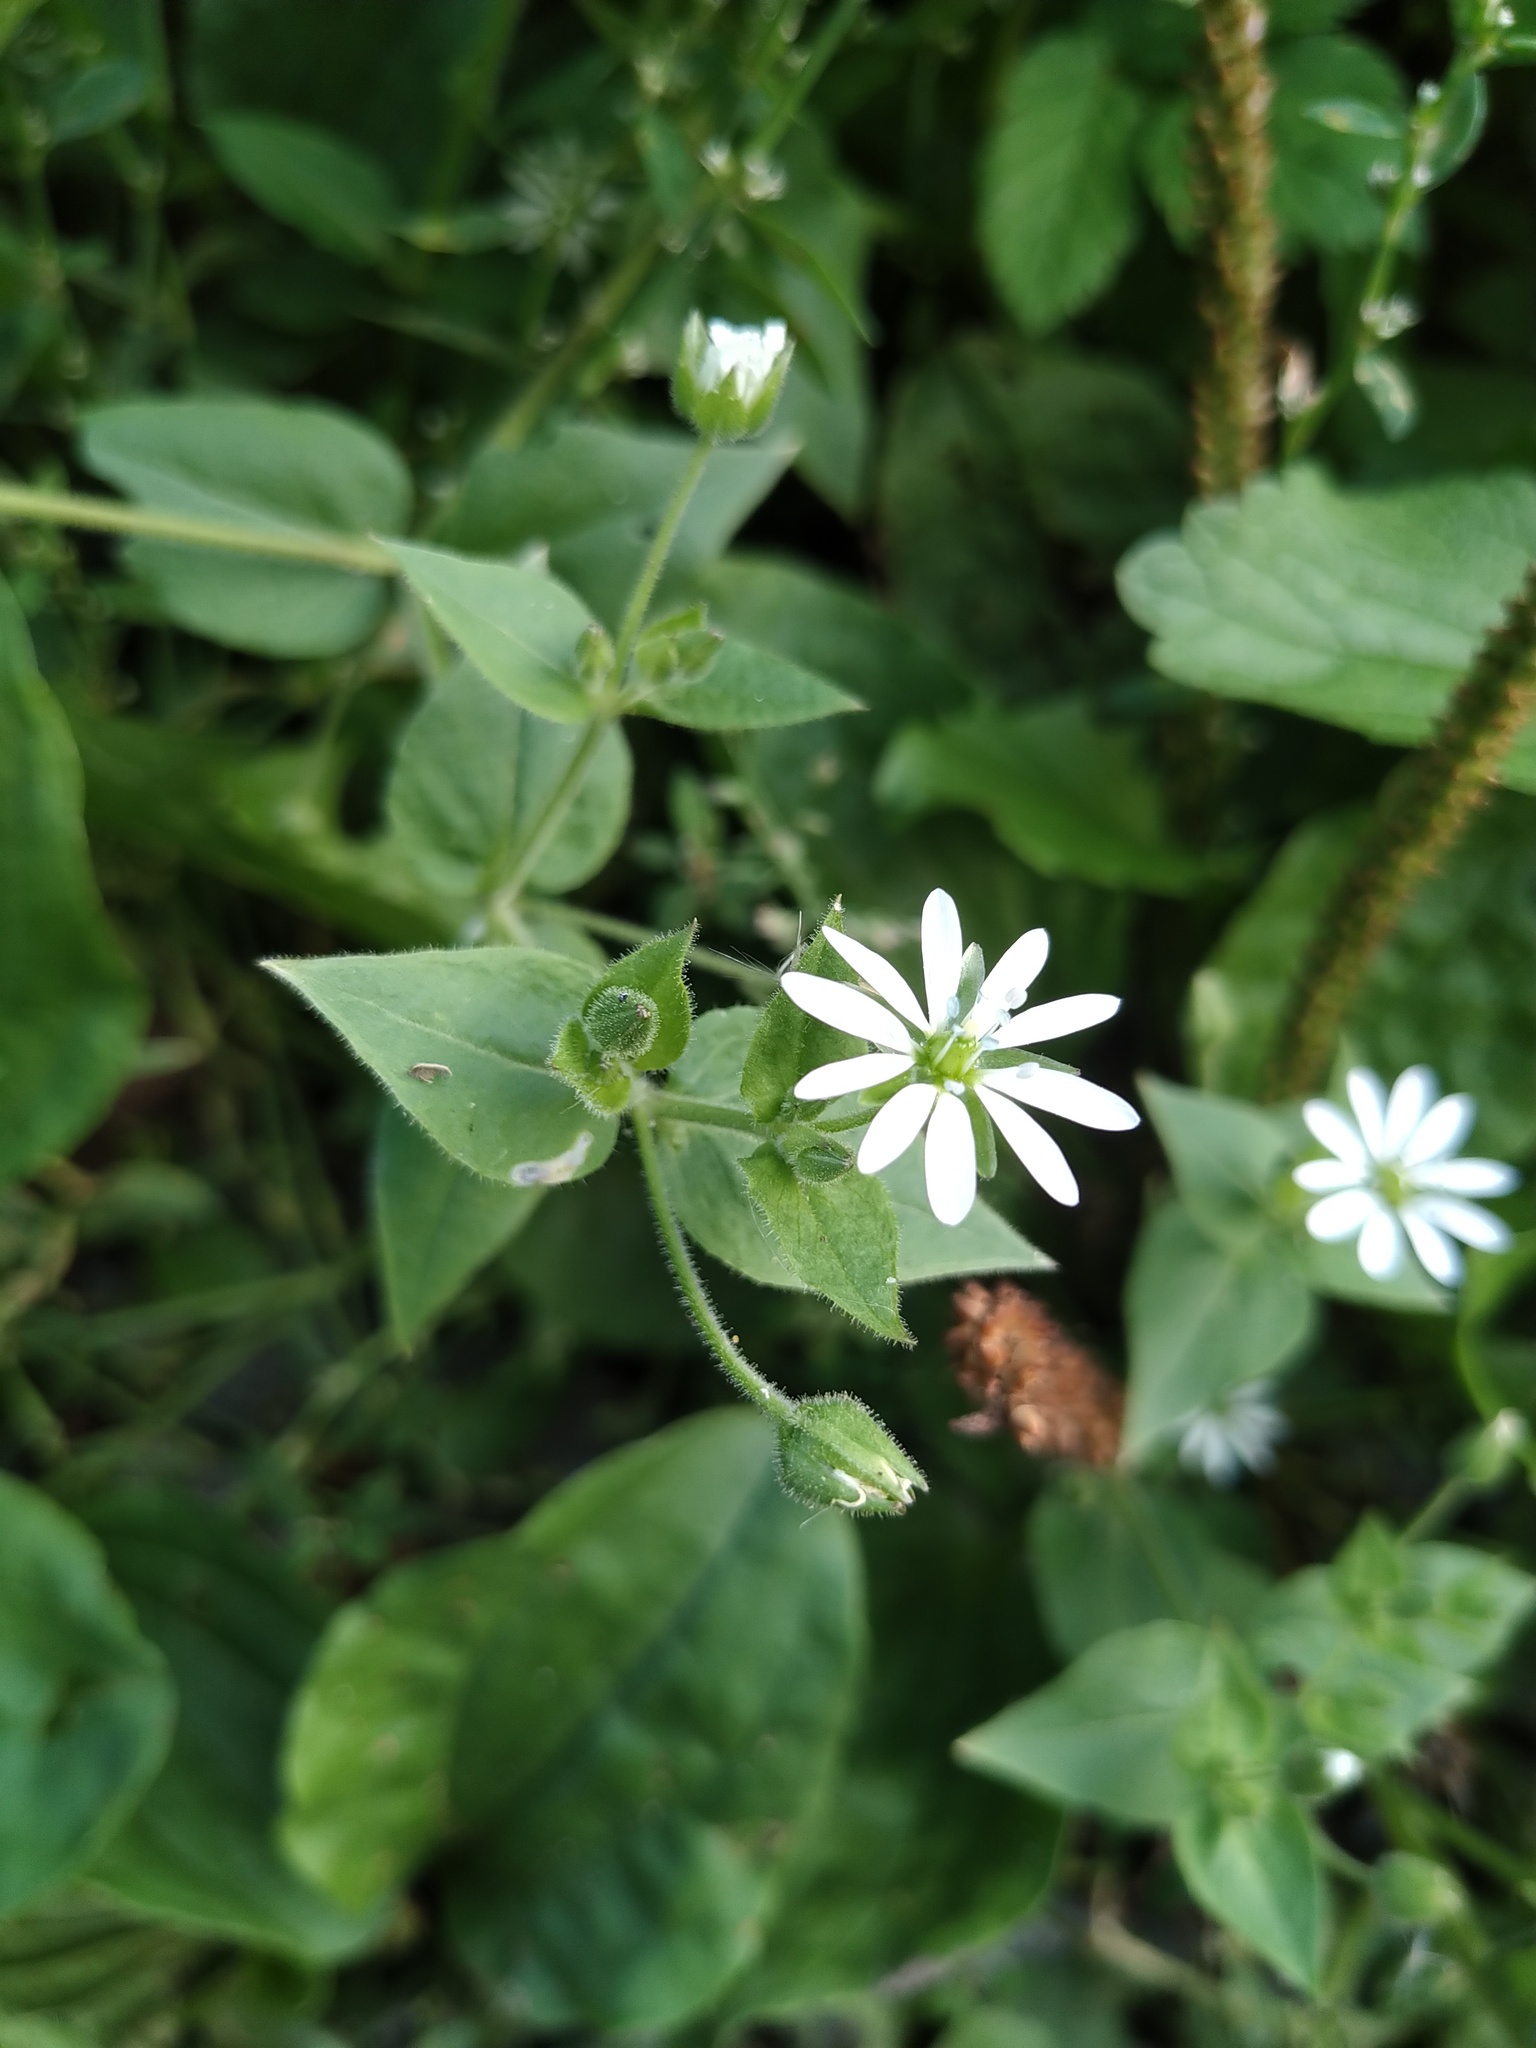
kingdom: Plantae
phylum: Tracheophyta
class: Magnoliopsida
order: Caryophyllales
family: Caryophyllaceae
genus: Stellaria
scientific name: Stellaria aquatica
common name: Water chickweed
